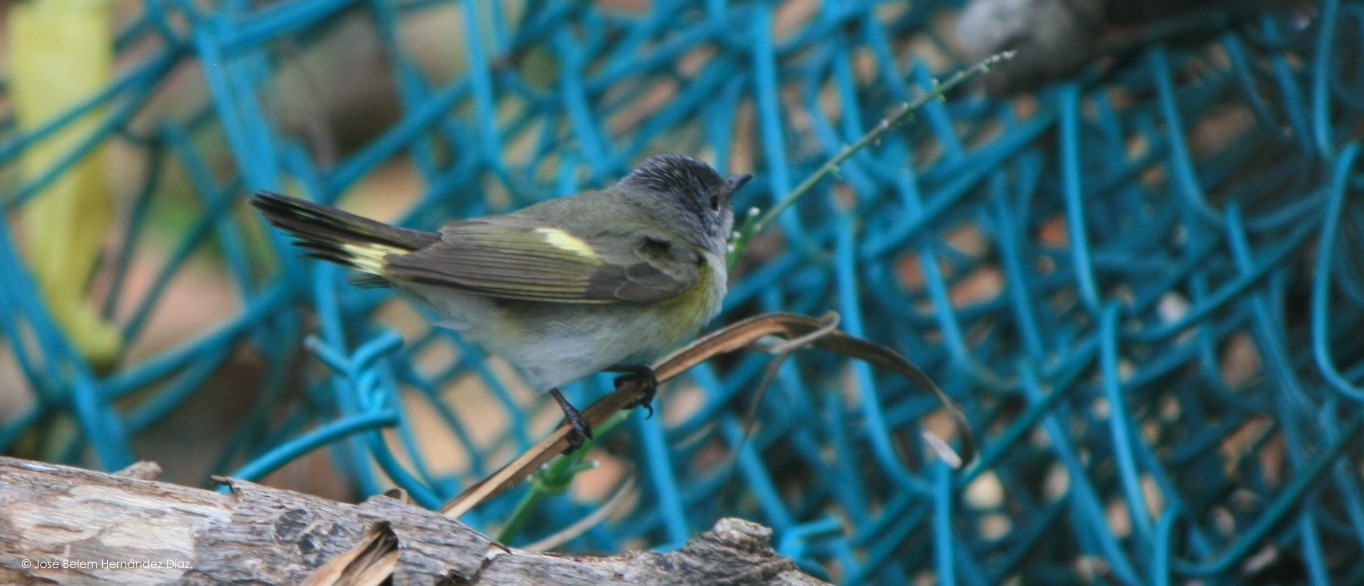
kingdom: Animalia
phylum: Chordata
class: Aves
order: Passeriformes
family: Parulidae
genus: Setophaga
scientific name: Setophaga ruticilla
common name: American redstart
